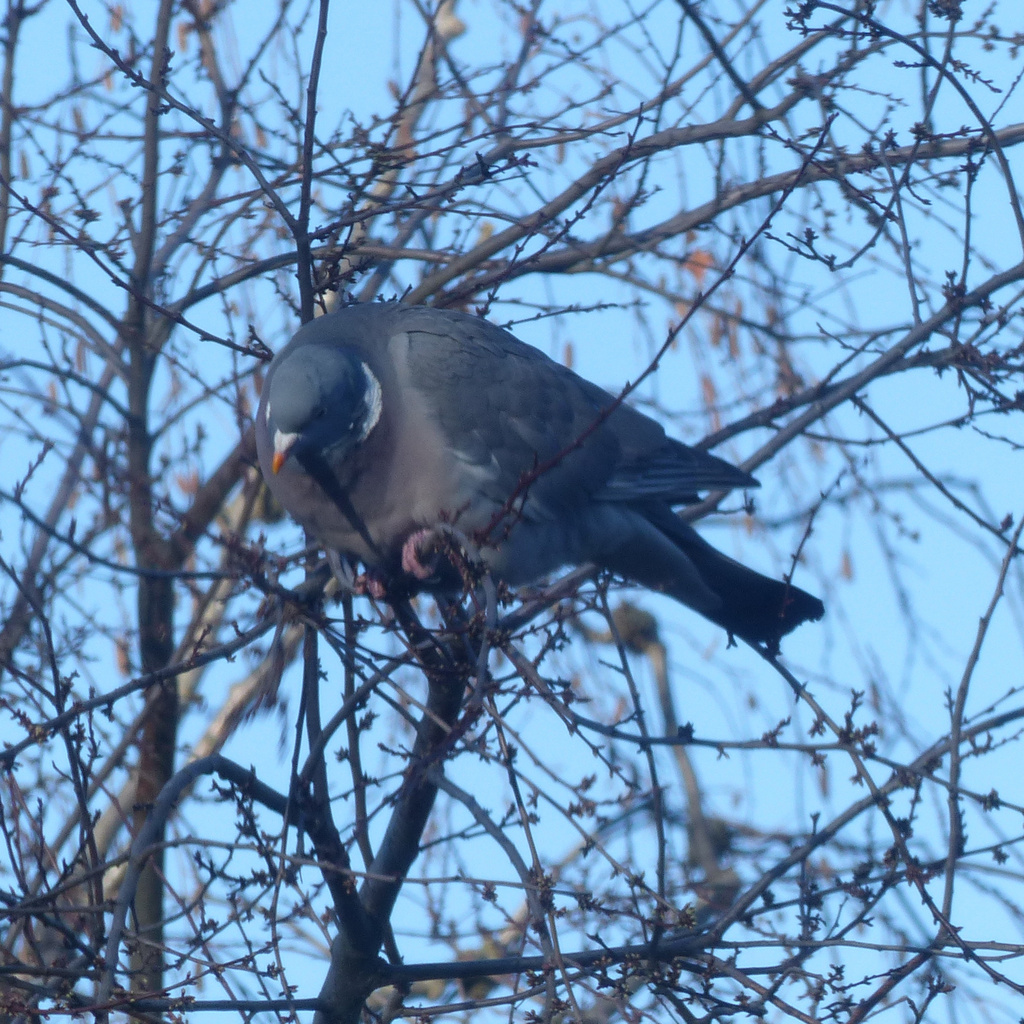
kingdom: Animalia
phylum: Chordata
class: Aves
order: Columbiformes
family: Columbidae
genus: Columba
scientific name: Columba palumbus
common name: Common wood pigeon
